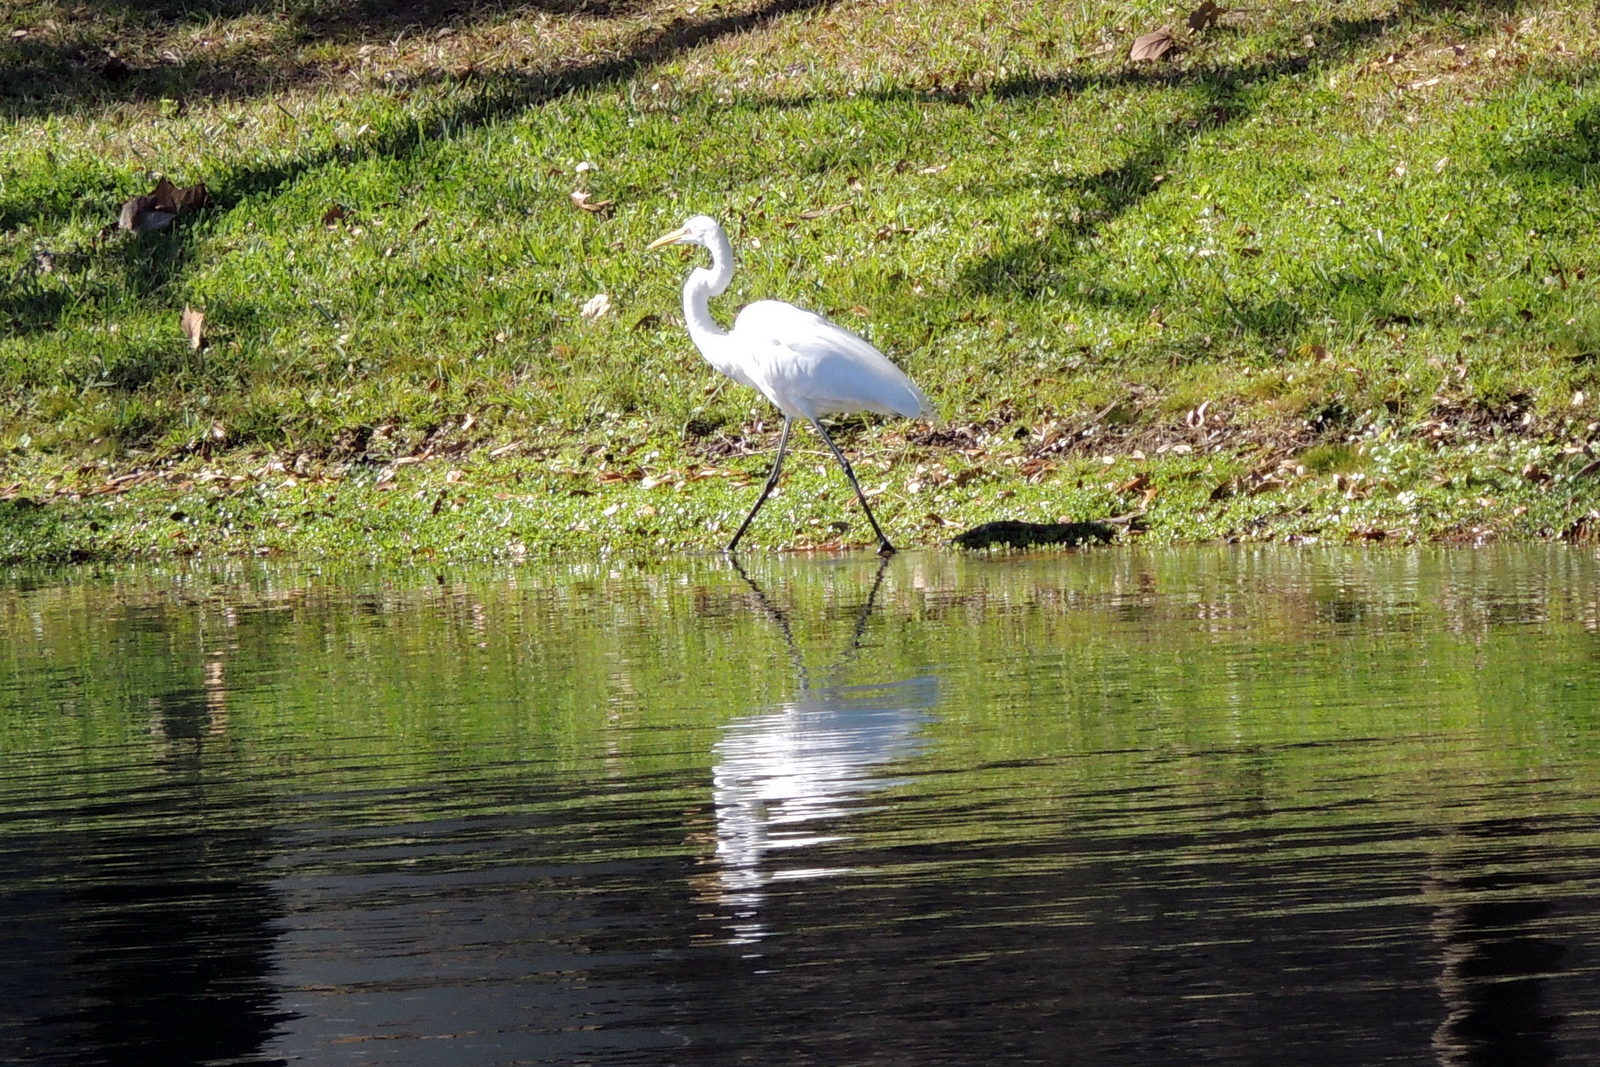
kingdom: Animalia
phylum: Chordata
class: Aves
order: Pelecaniformes
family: Ardeidae
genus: Ardea
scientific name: Ardea alba
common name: Great egret
